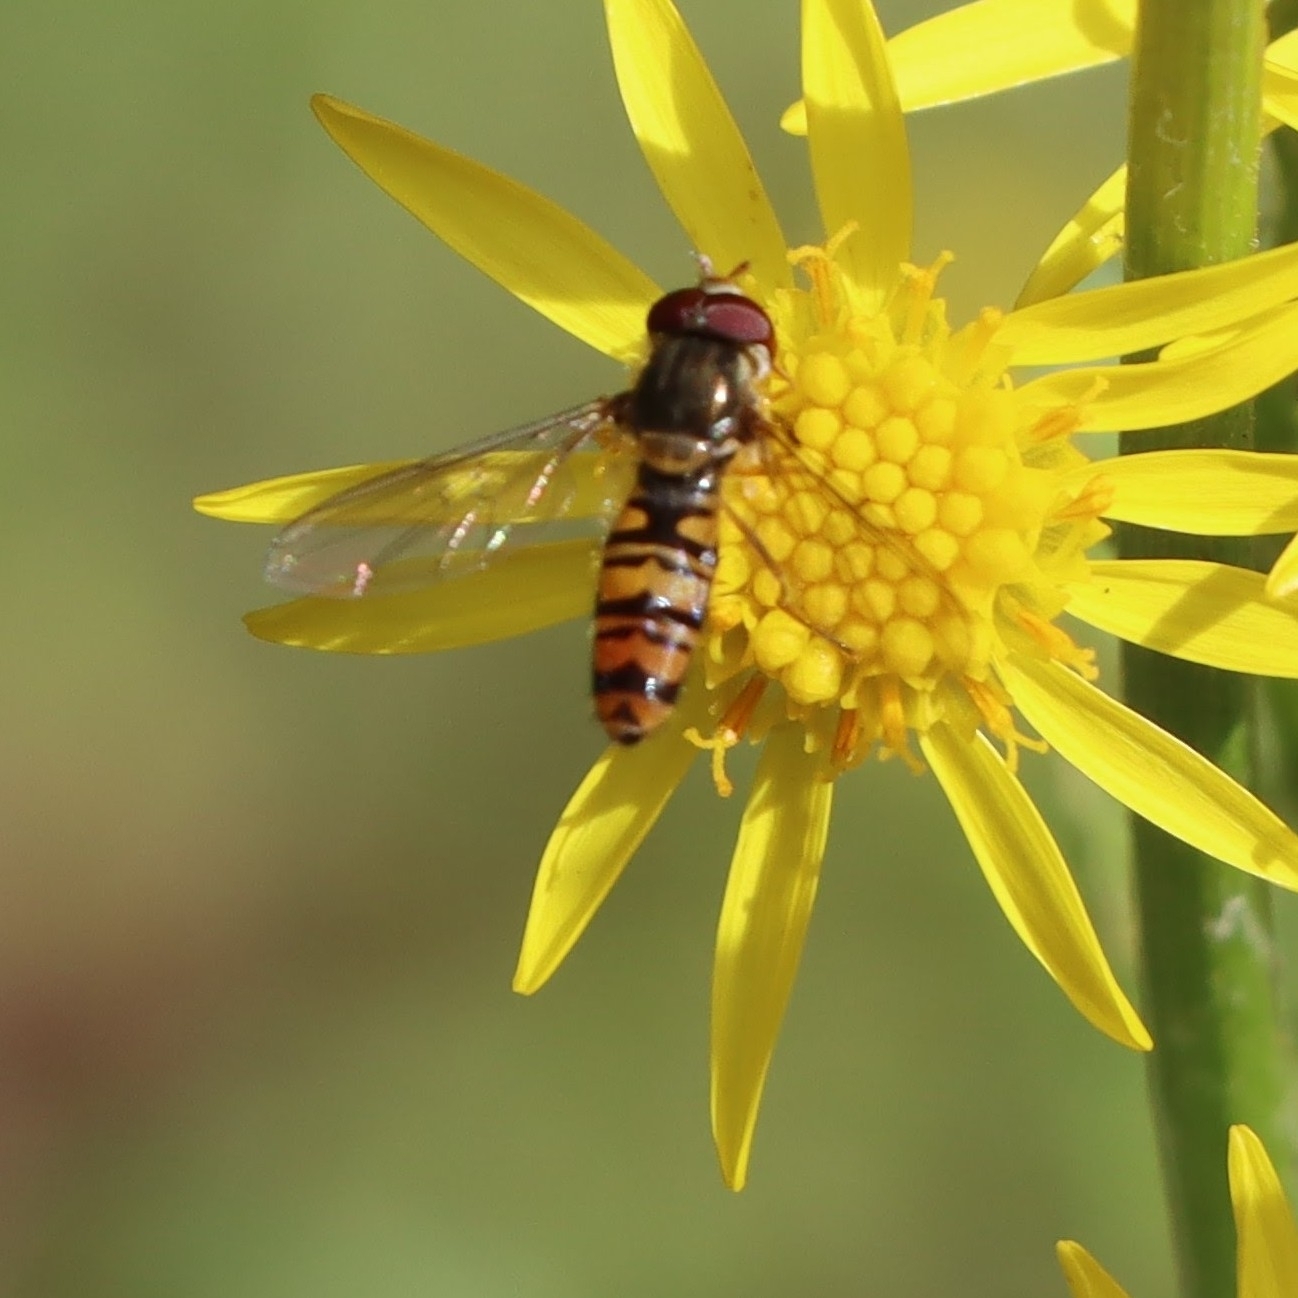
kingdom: Animalia
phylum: Arthropoda
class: Insecta
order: Diptera
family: Syrphidae
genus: Episyrphus
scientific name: Episyrphus balteatus
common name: Marmalade hoverfly
